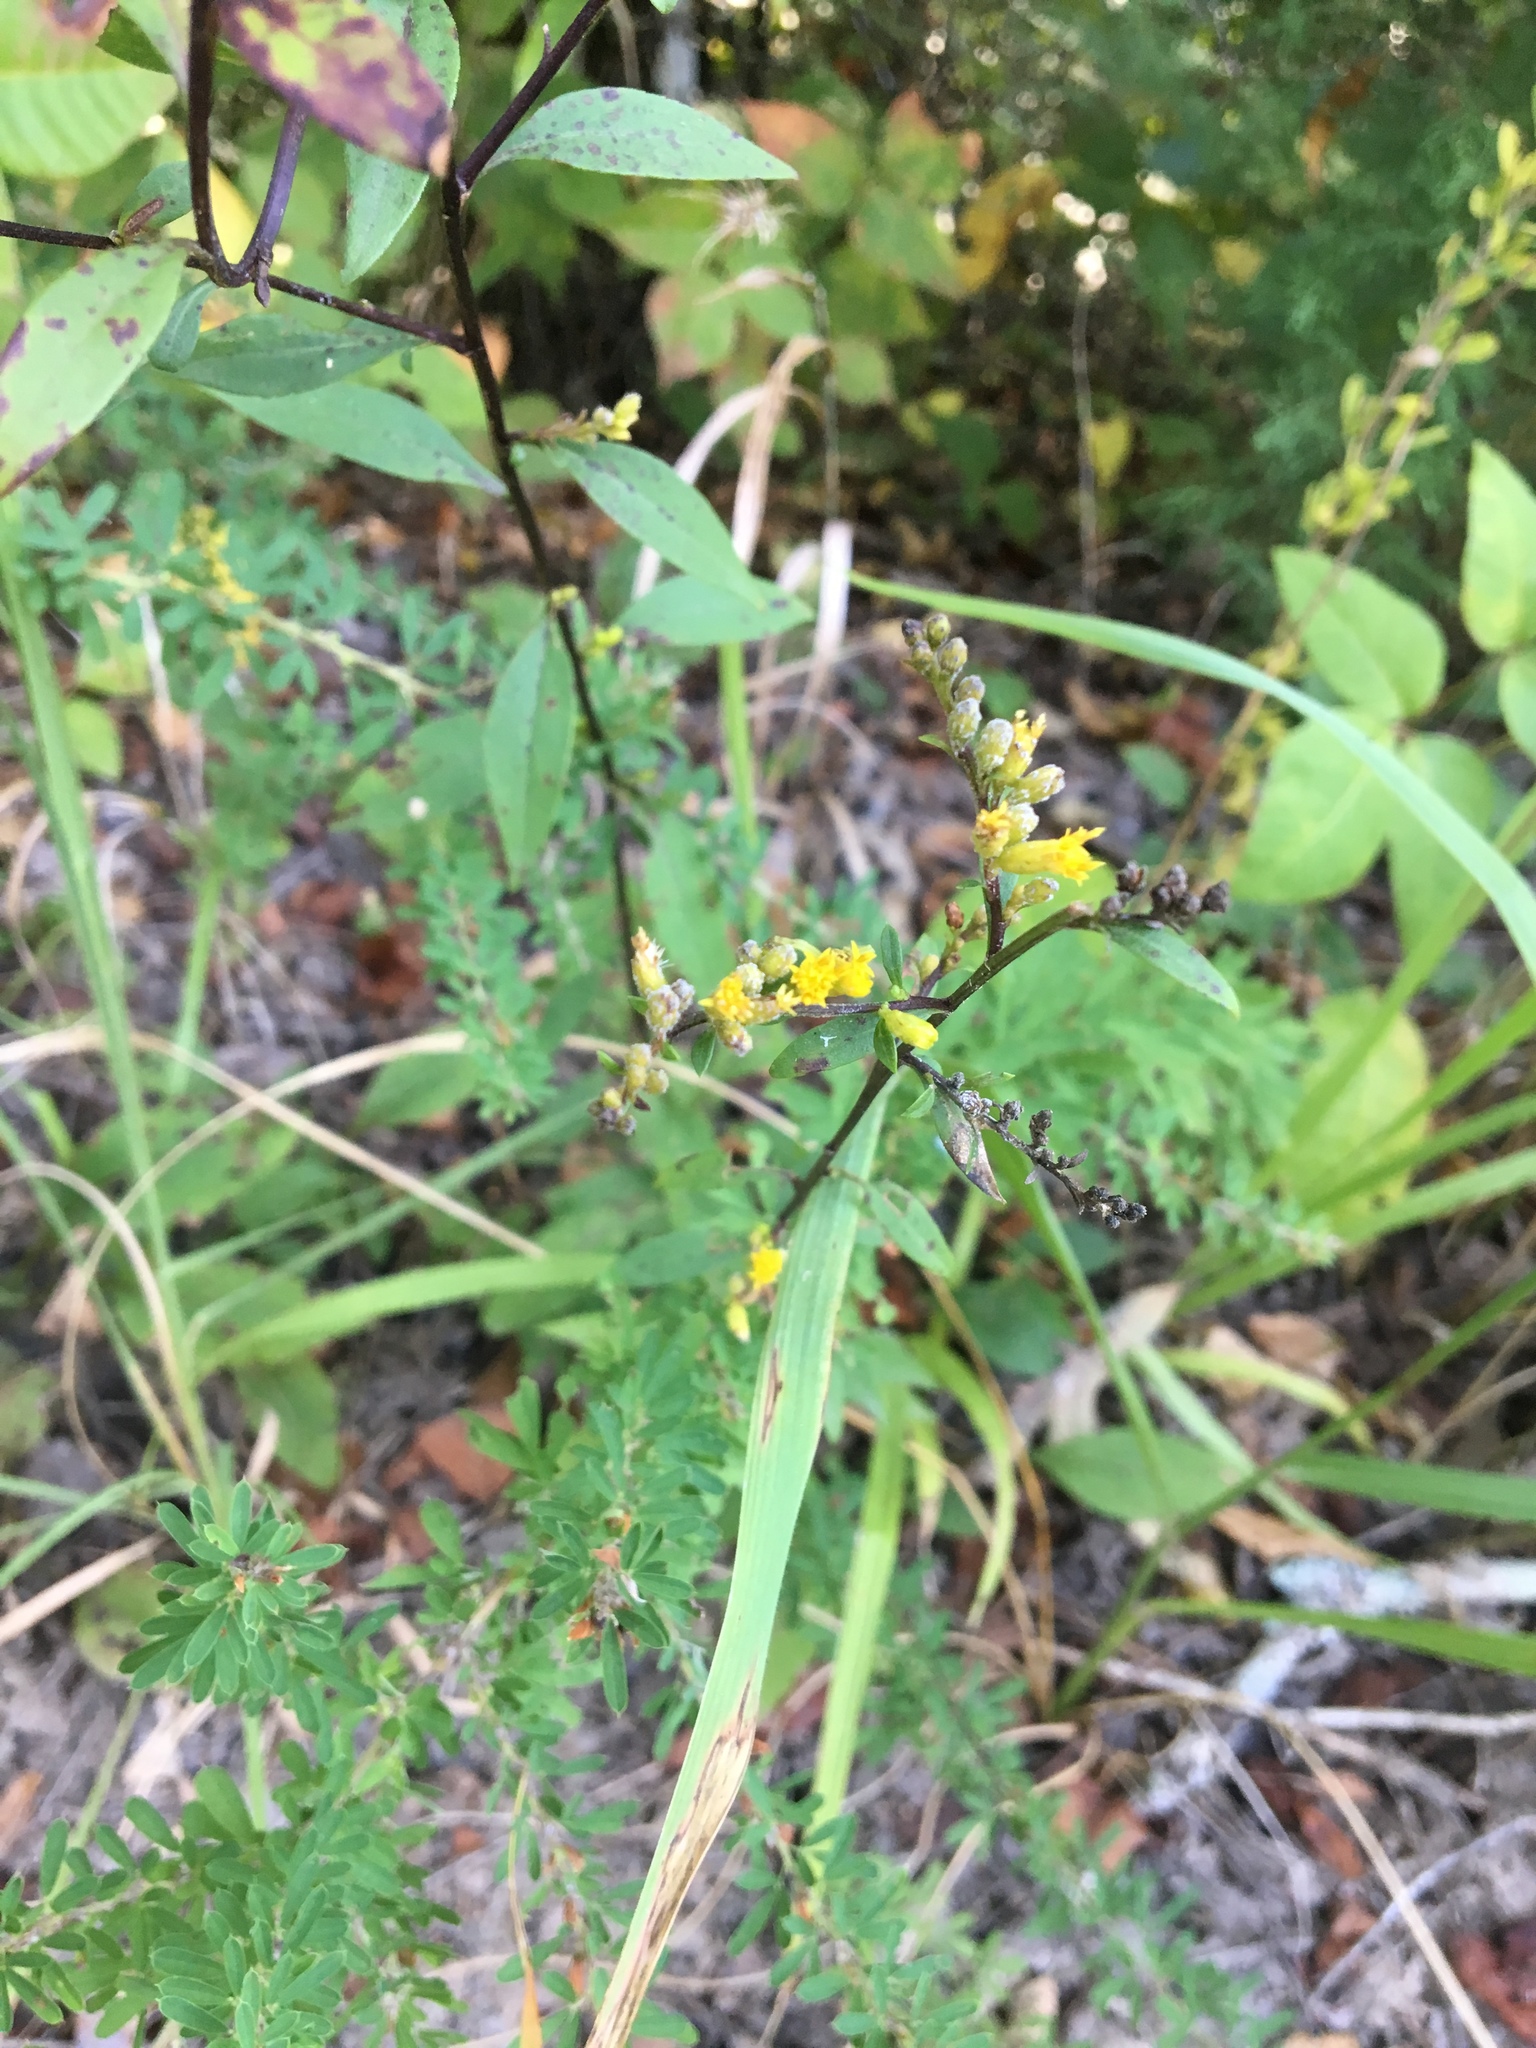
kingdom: Plantae
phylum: Tracheophyta
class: Magnoliopsida
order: Fabales
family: Fabaceae
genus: Lespedeza
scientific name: Lespedeza cuneata
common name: Chinese bush-clover
